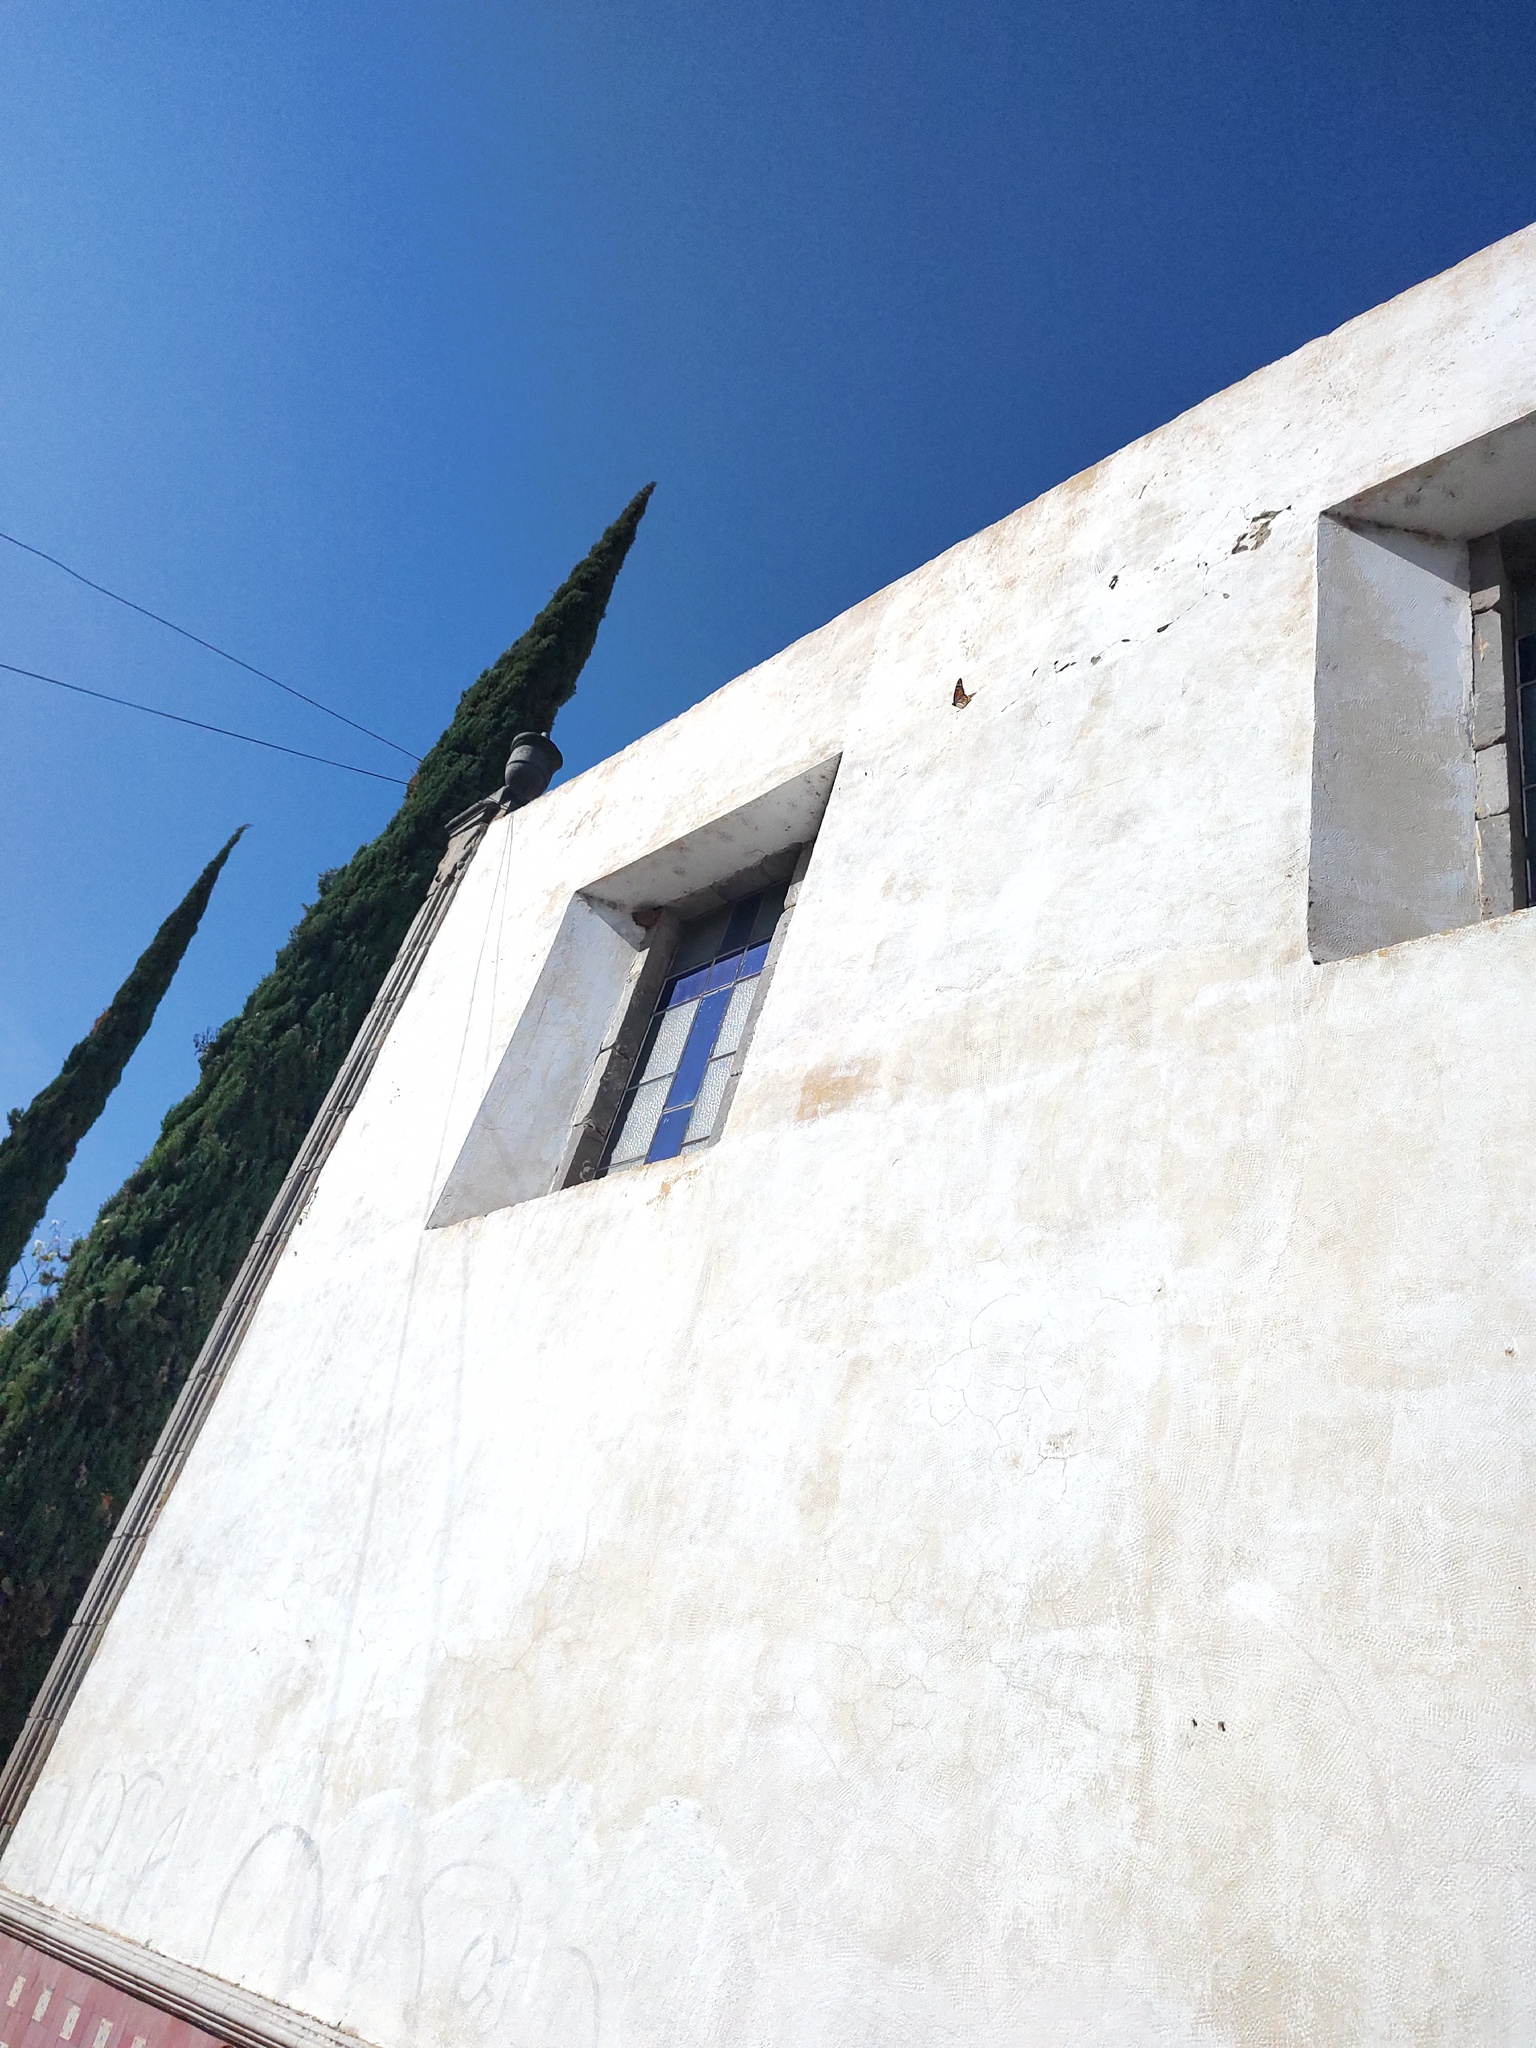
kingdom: Animalia
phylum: Arthropoda
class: Insecta
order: Lepidoptera
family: Nymphalidae
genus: Danaus
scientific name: Danaus plexippus
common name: Monarch
